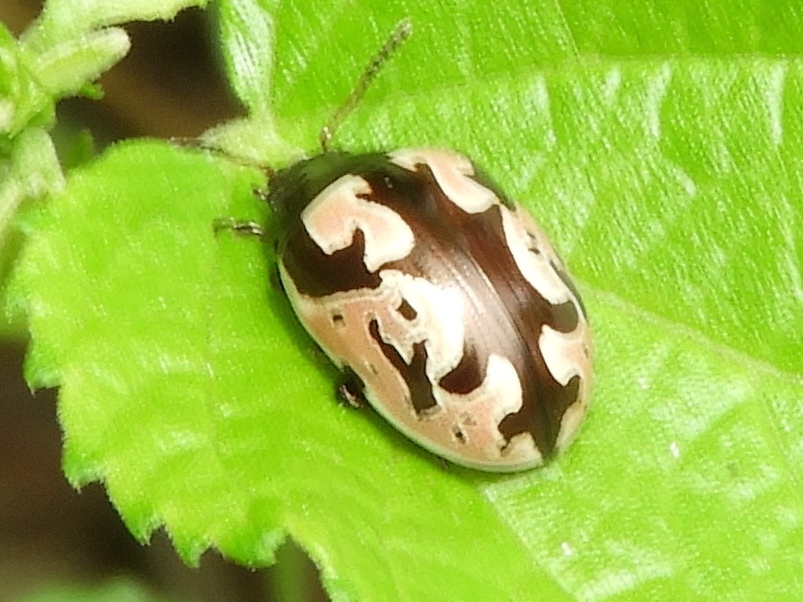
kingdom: Animalia
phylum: Arthropoda
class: Insecta
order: Coleoptera
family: Chrysomelidae
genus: Calligrapha
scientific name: Calligrapha ancoralis
